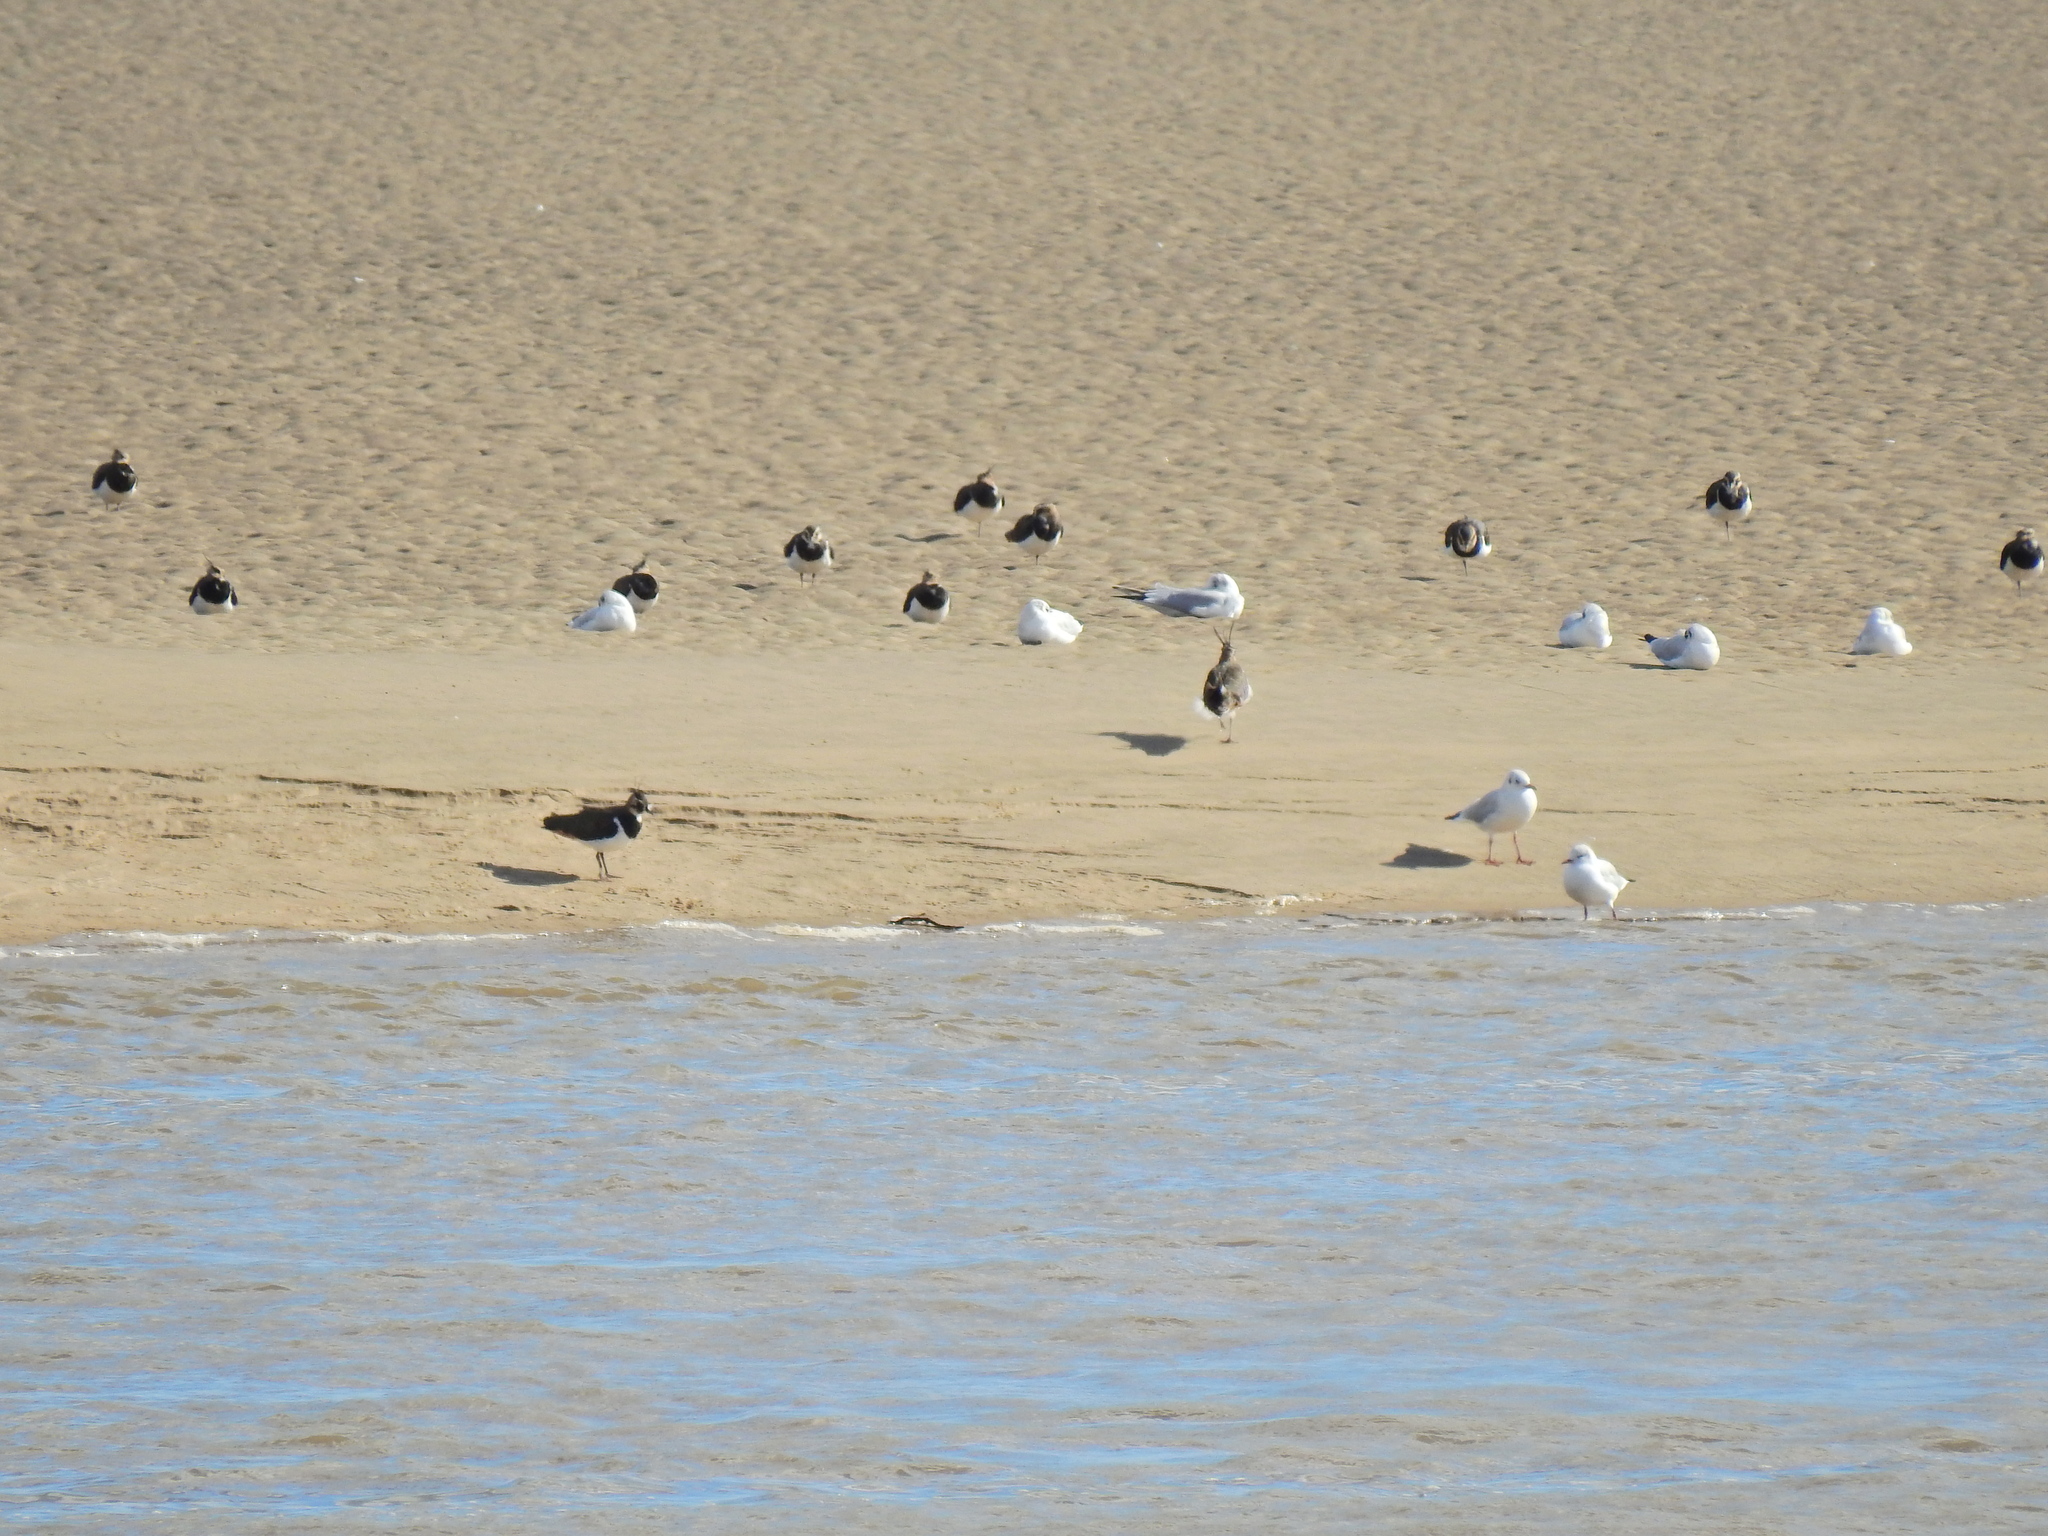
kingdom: Animalia
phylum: Chordata
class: Aves
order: Charadriiformes
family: Laridae
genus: Chroicocephalus
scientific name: Chroicocephalus ridibundus
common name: Black-headed gull
